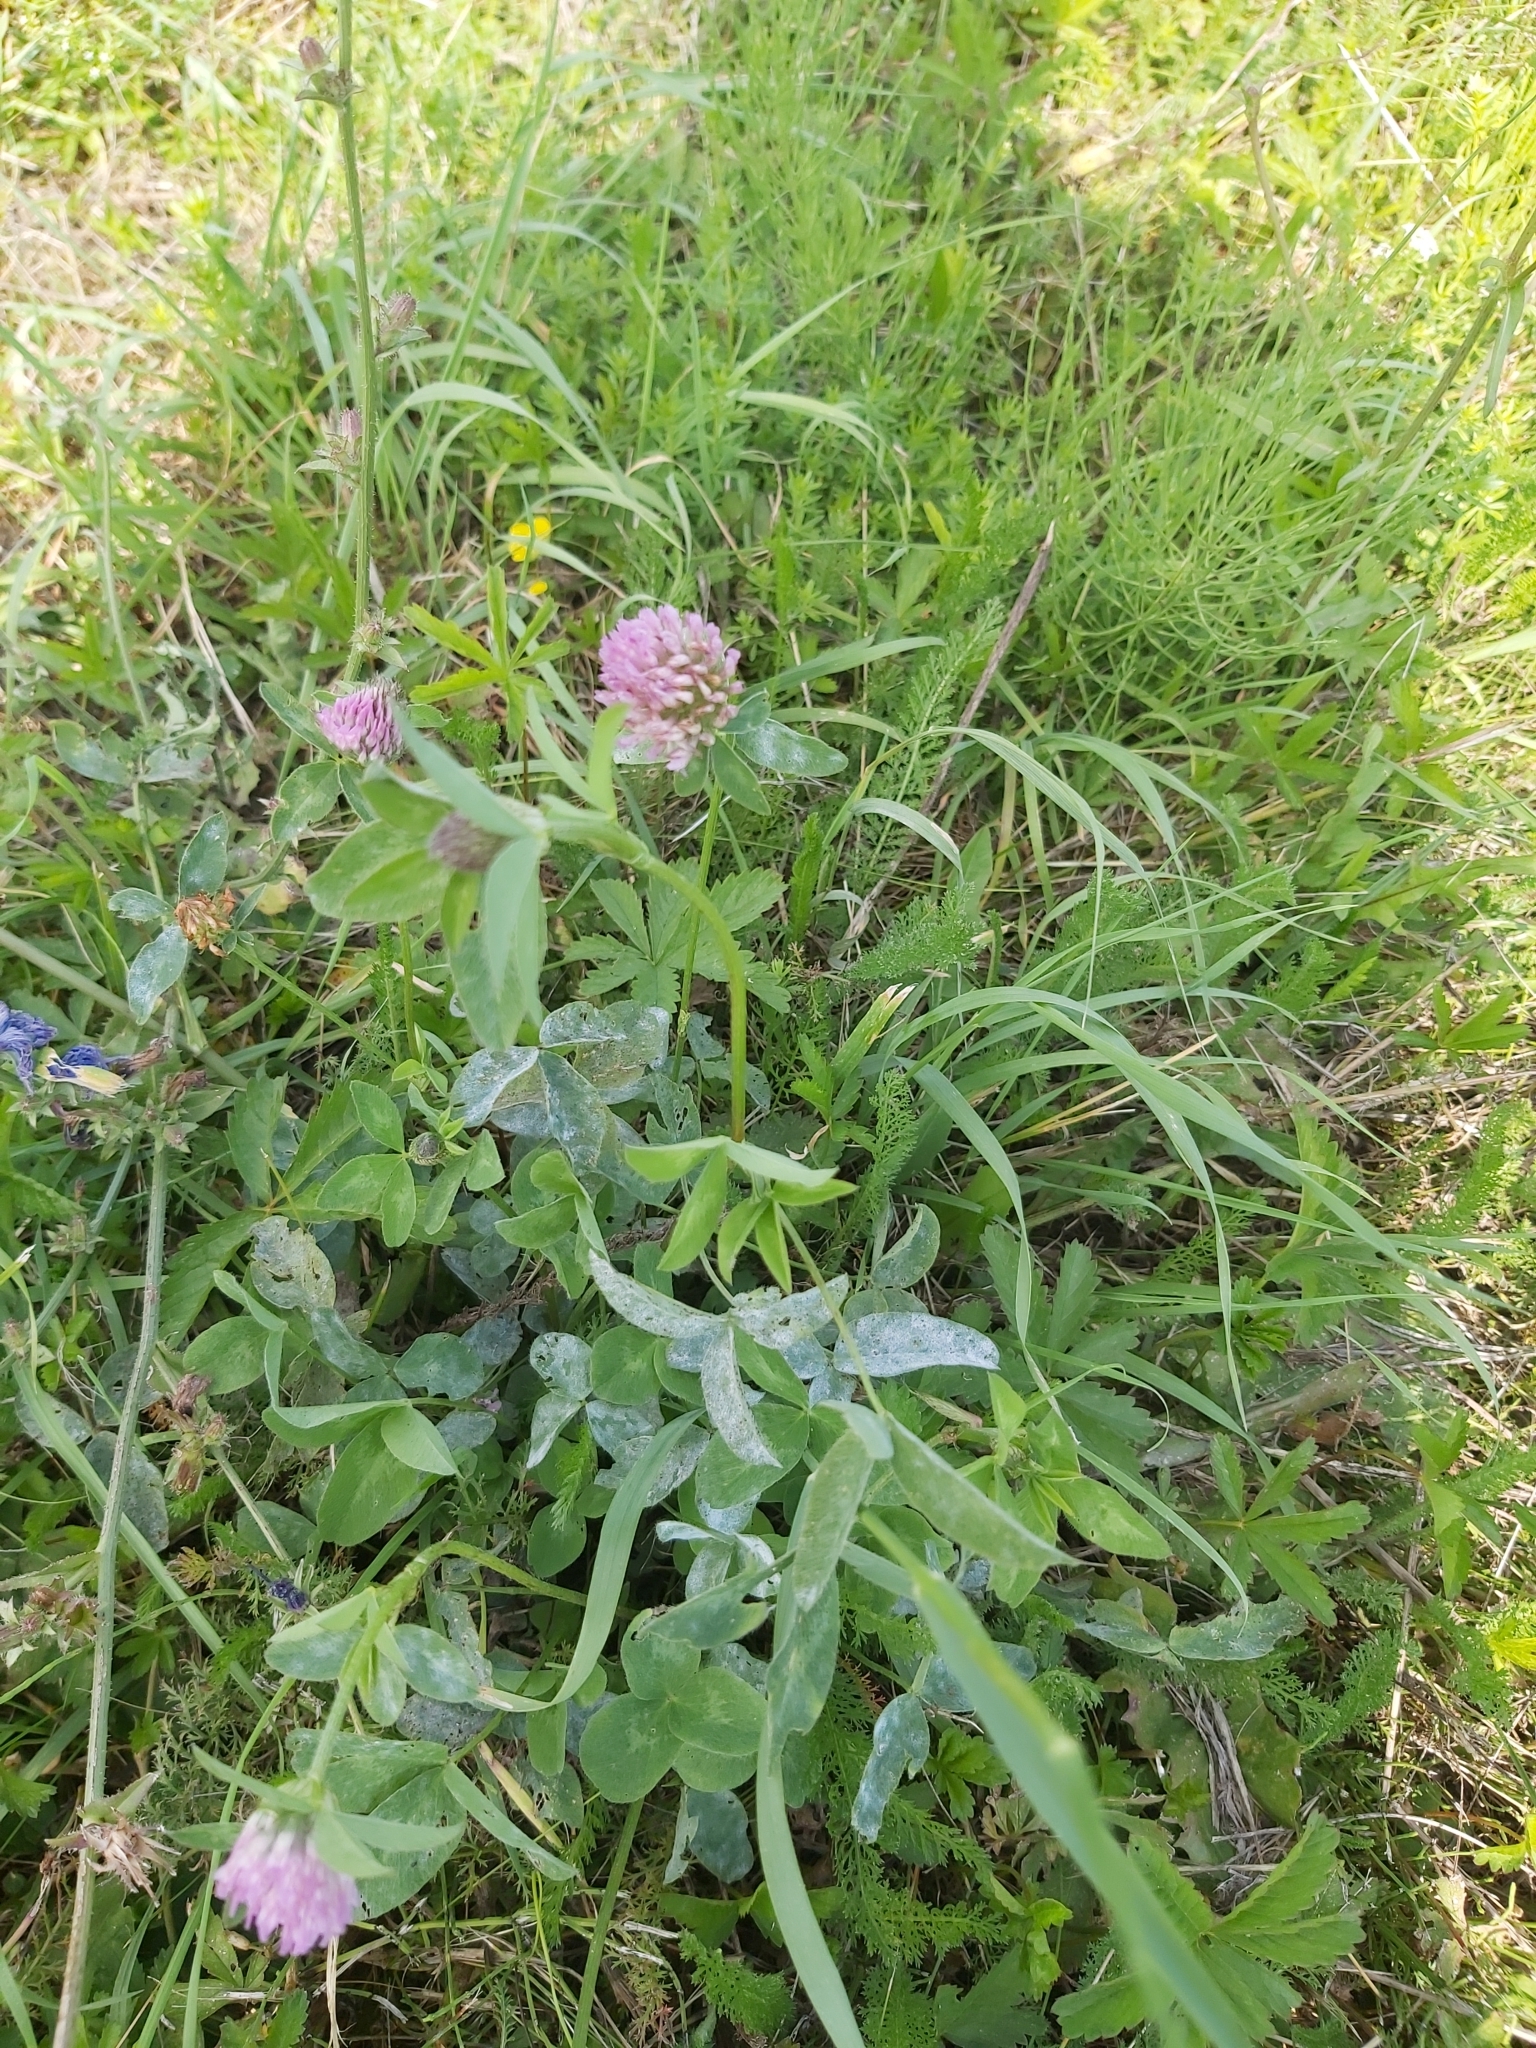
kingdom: Fungi
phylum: Ascomycota
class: Leotiomycetes
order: Helotiales
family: Erysiphaceae
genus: Erysiphe
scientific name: Erysiphe trifoliorum
